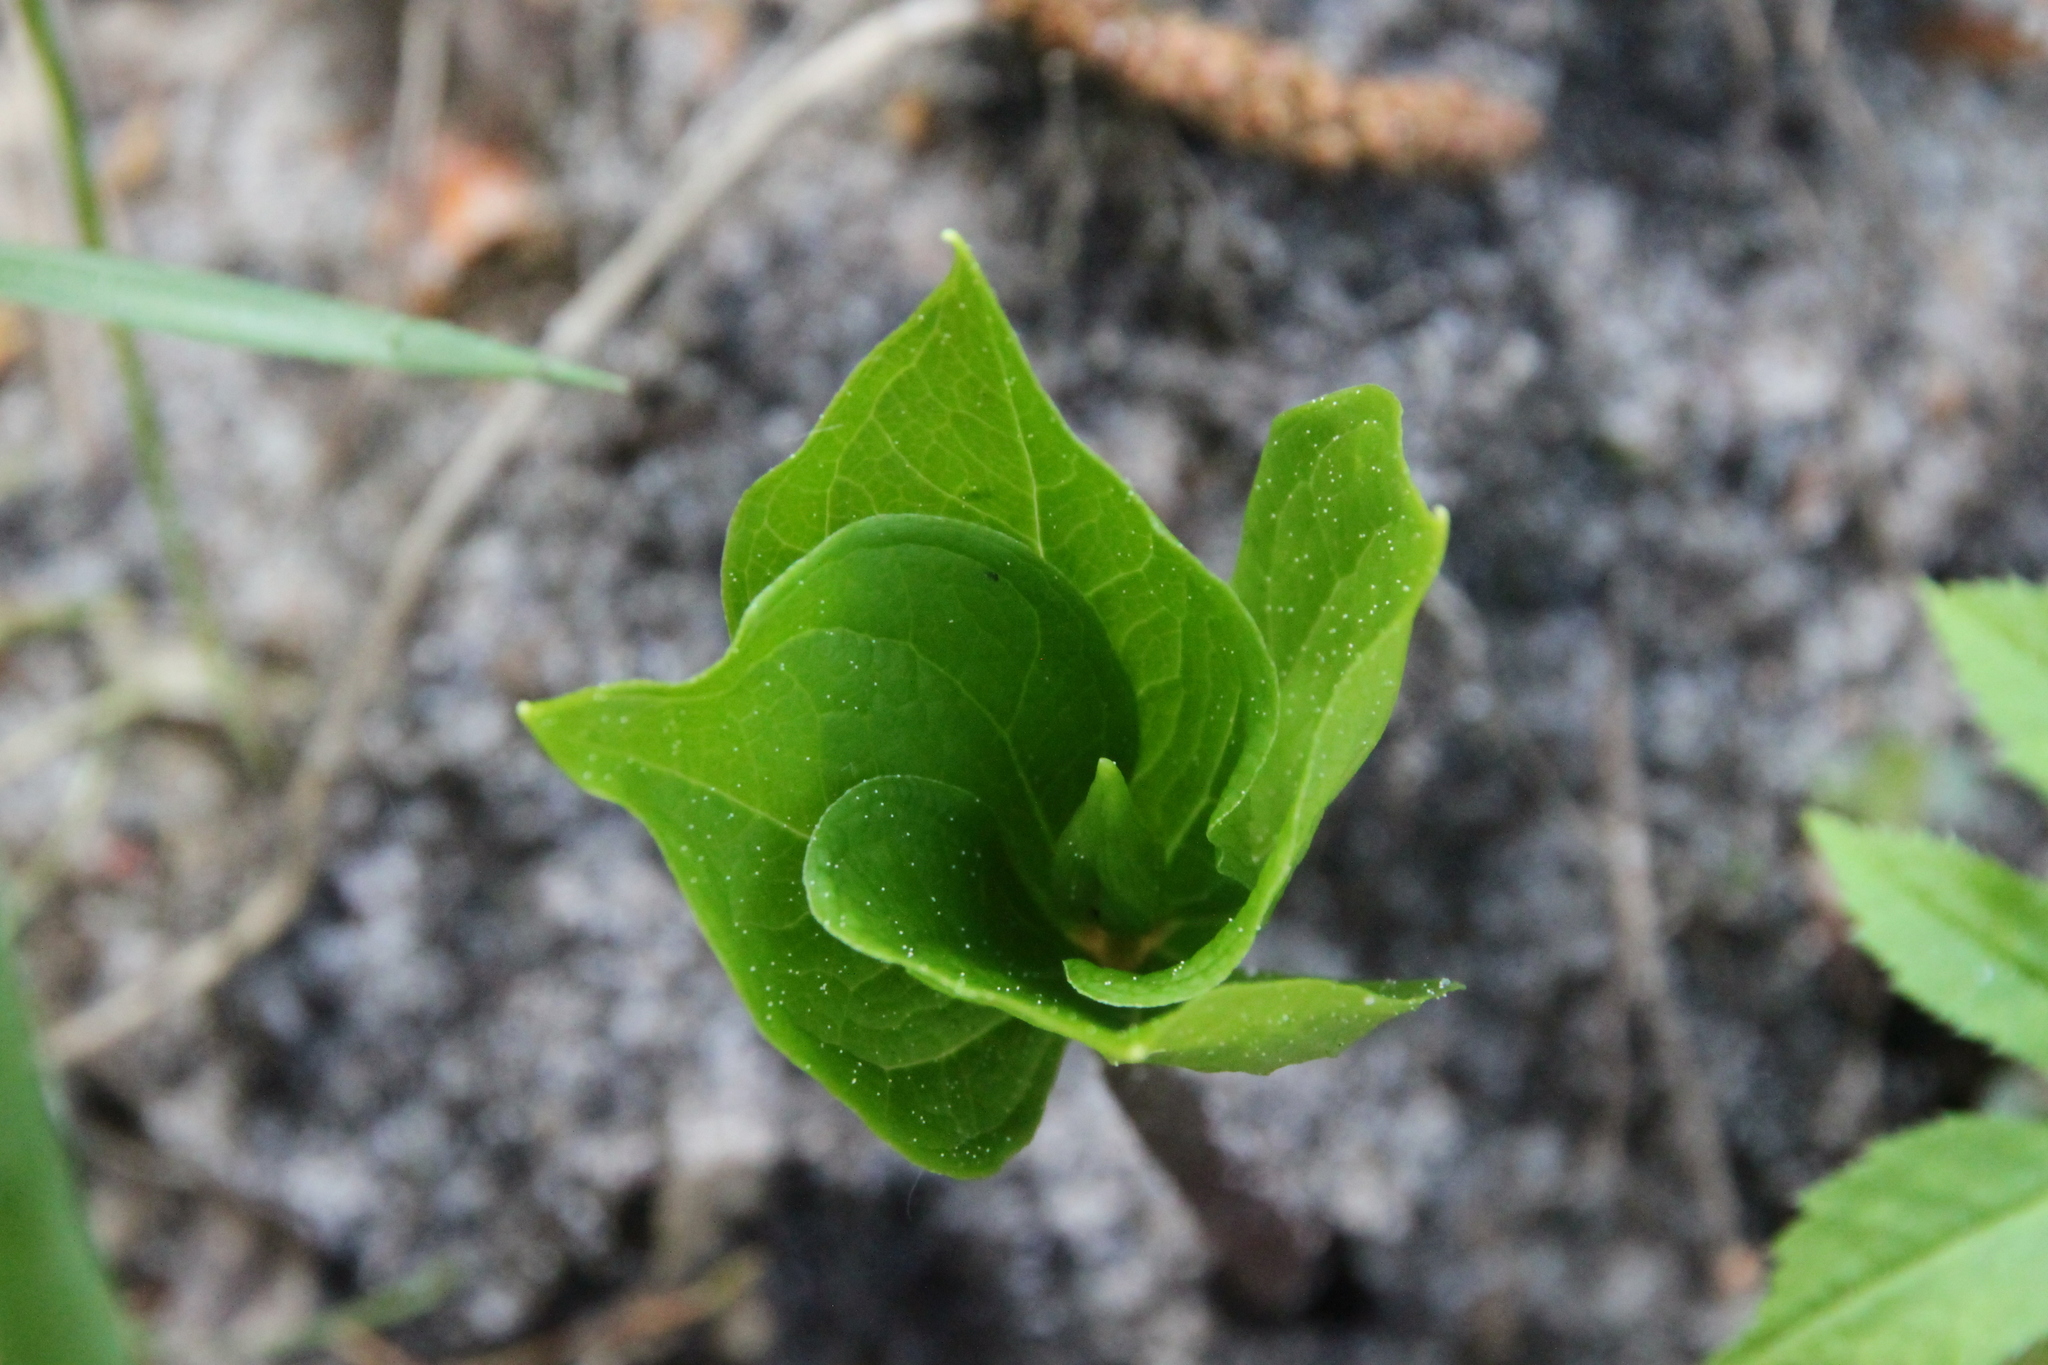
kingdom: Plantae
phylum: Tracheophyta
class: Liliopsida
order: Liliales
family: Melanthiaceae
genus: Paris
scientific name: Paris quadrifolia
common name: Herb-paris
